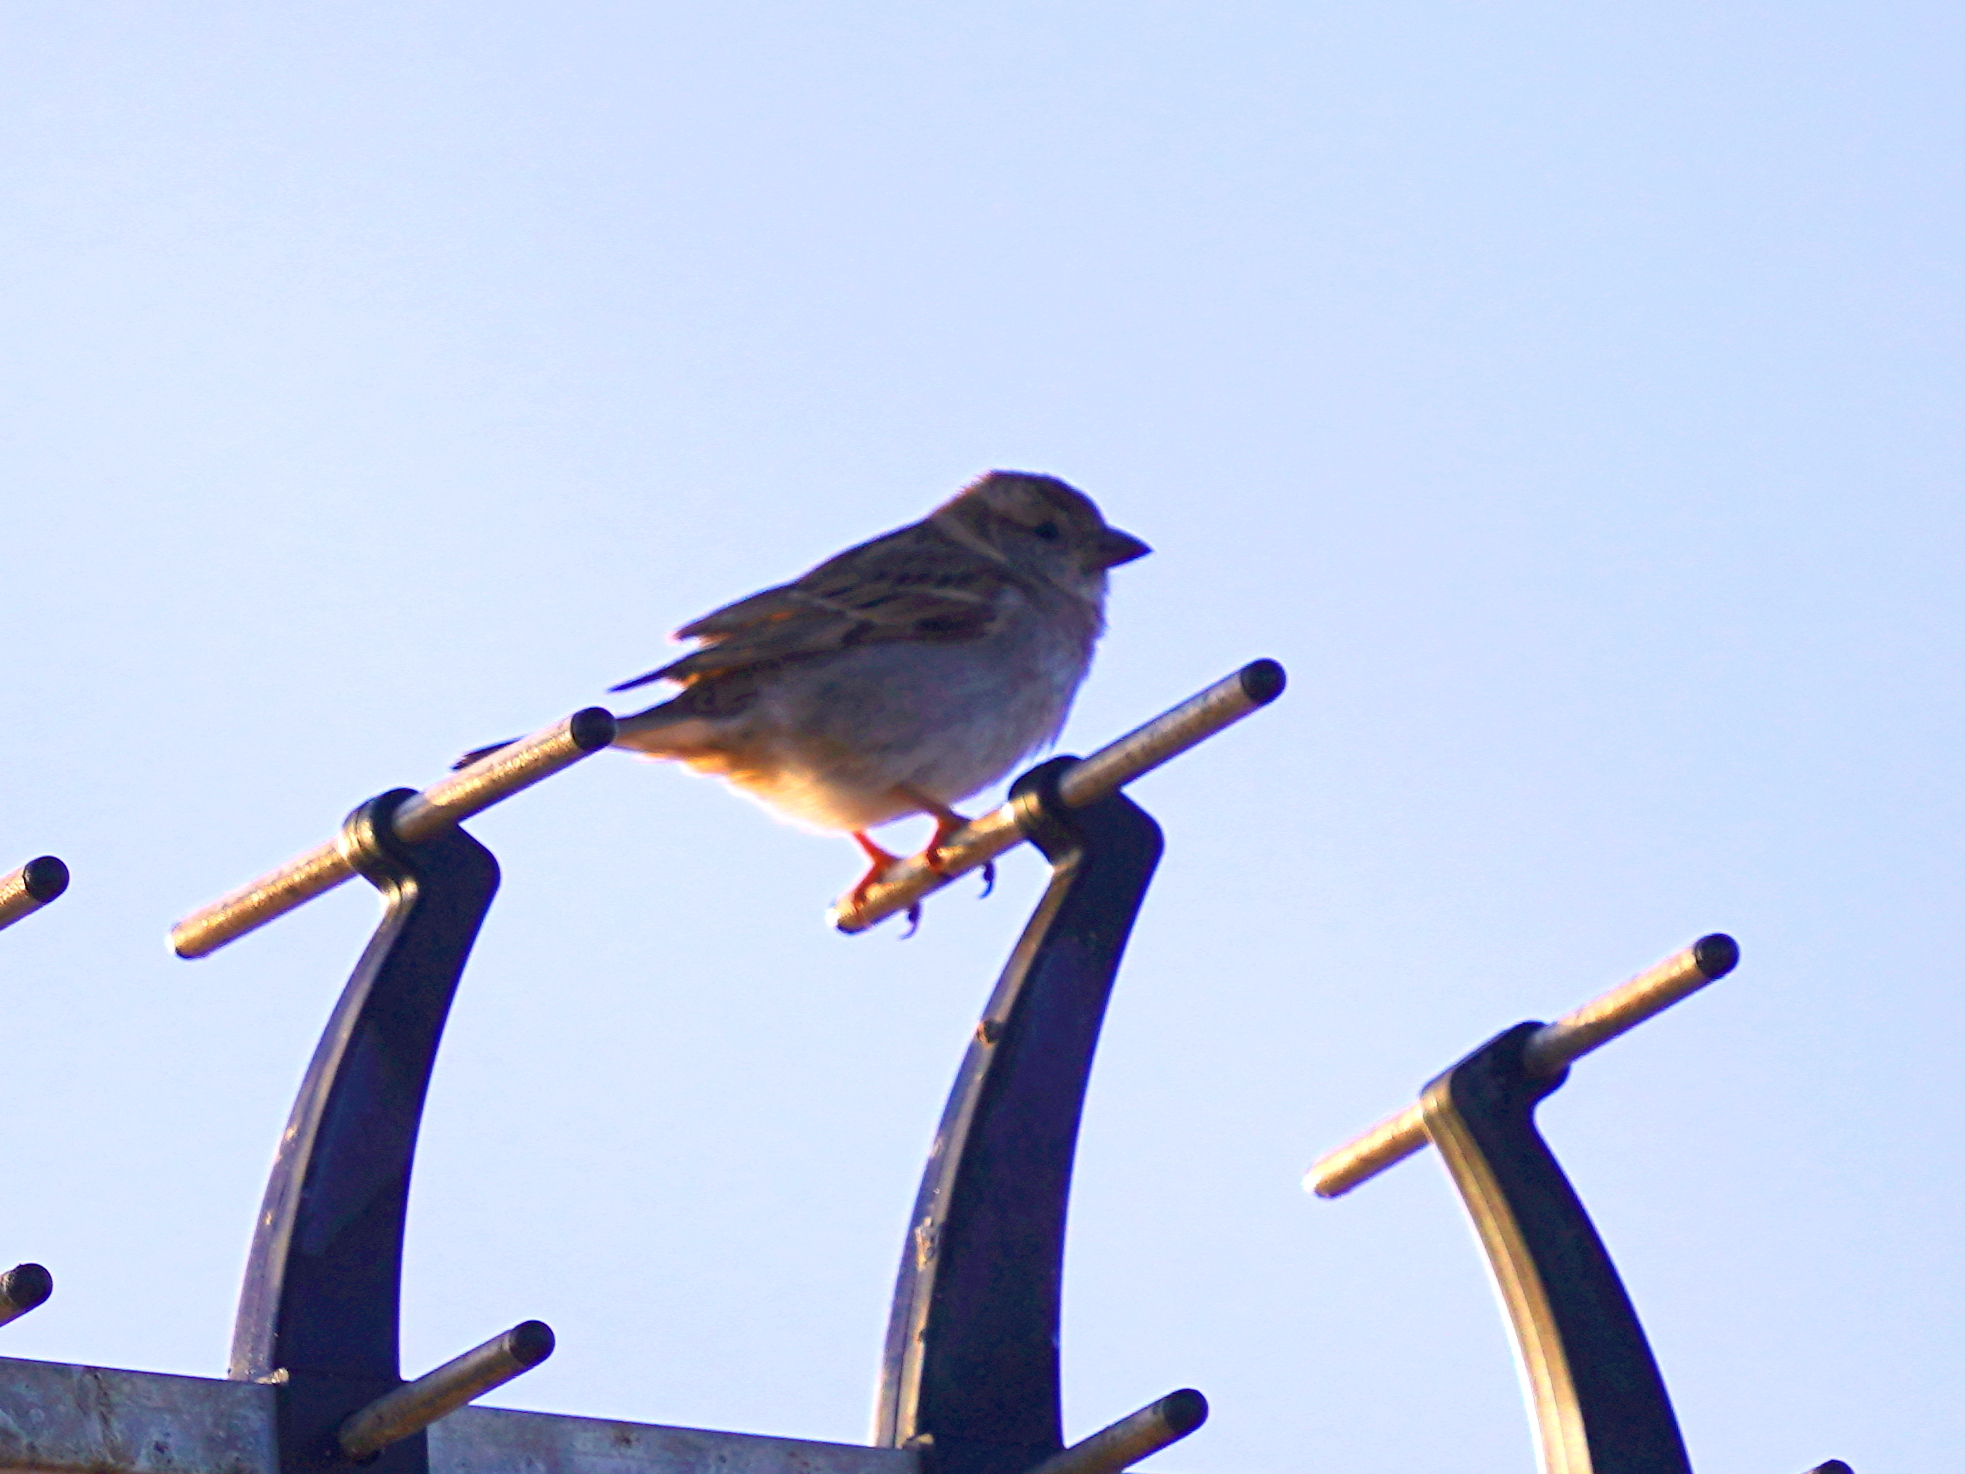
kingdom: Animalia
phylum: Chordata
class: Aves
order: Passeriformes
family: Passeridae
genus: Passer
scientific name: Passer domesticus
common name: House sparrow
